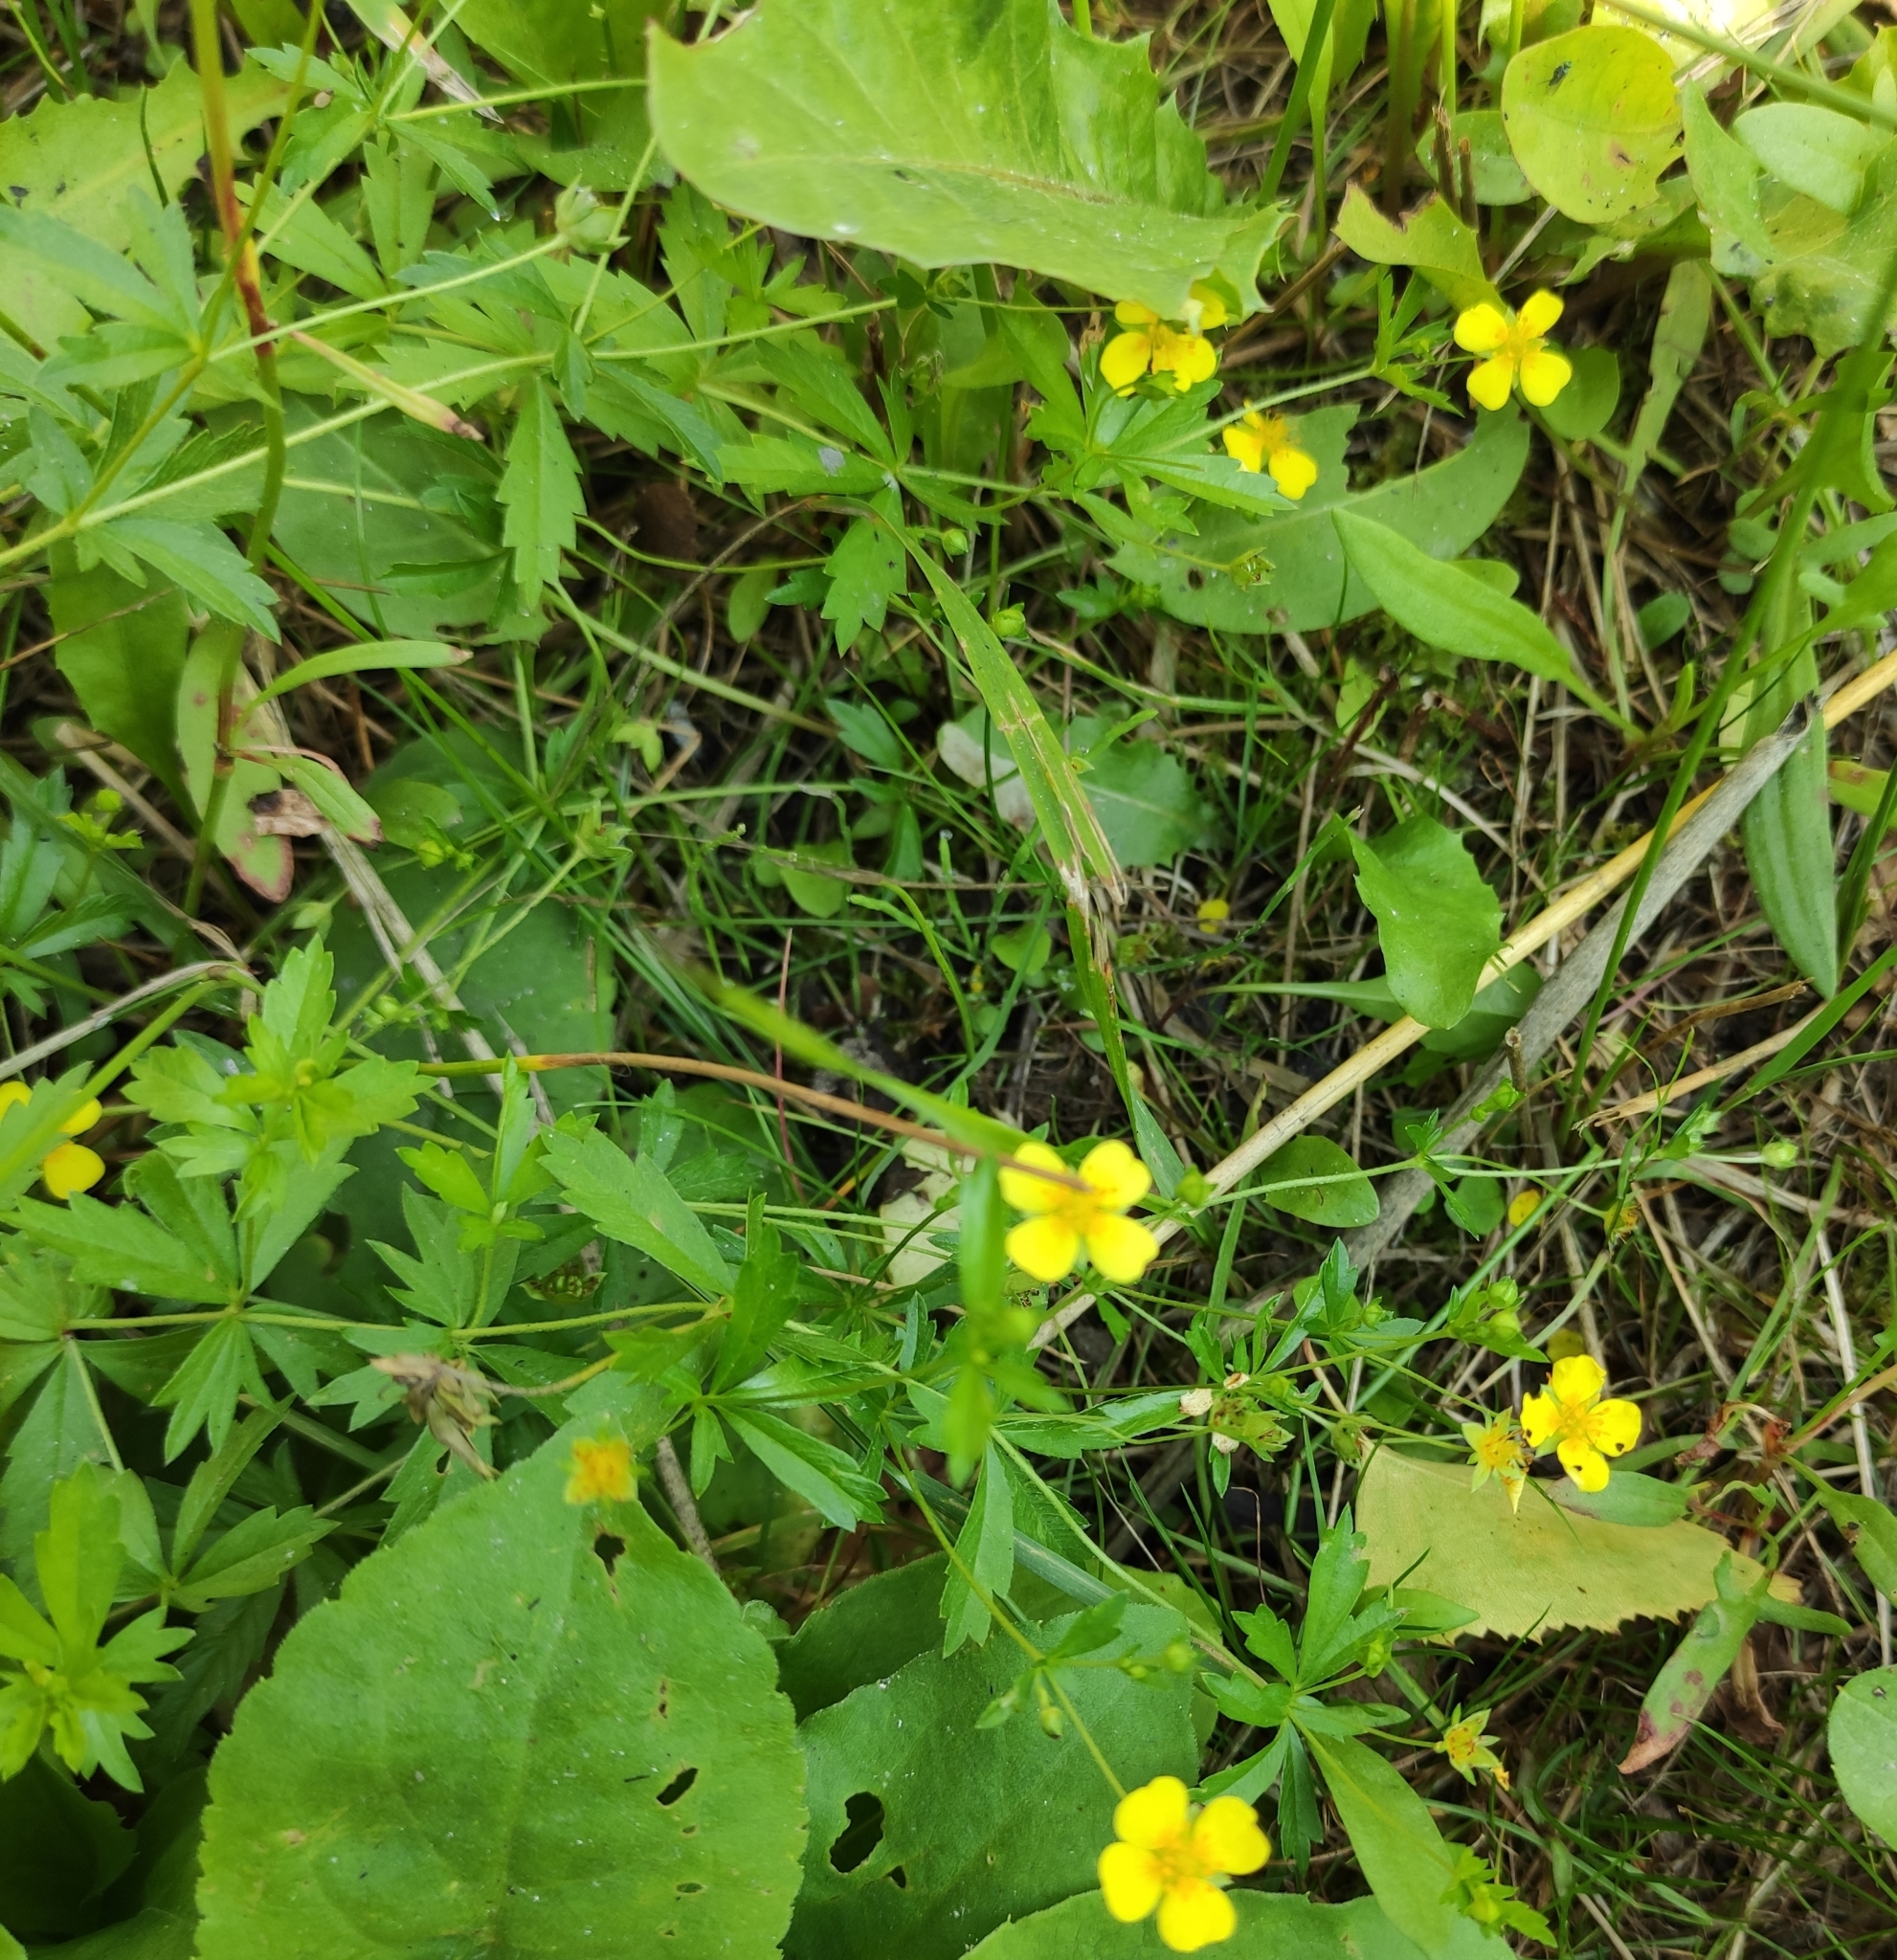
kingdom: Plantae
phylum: Tracheophyta
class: Magnoliopsida
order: Rosales
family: Rosaceae
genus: Potentilla
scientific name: Potentilla erecta
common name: Tormentil
